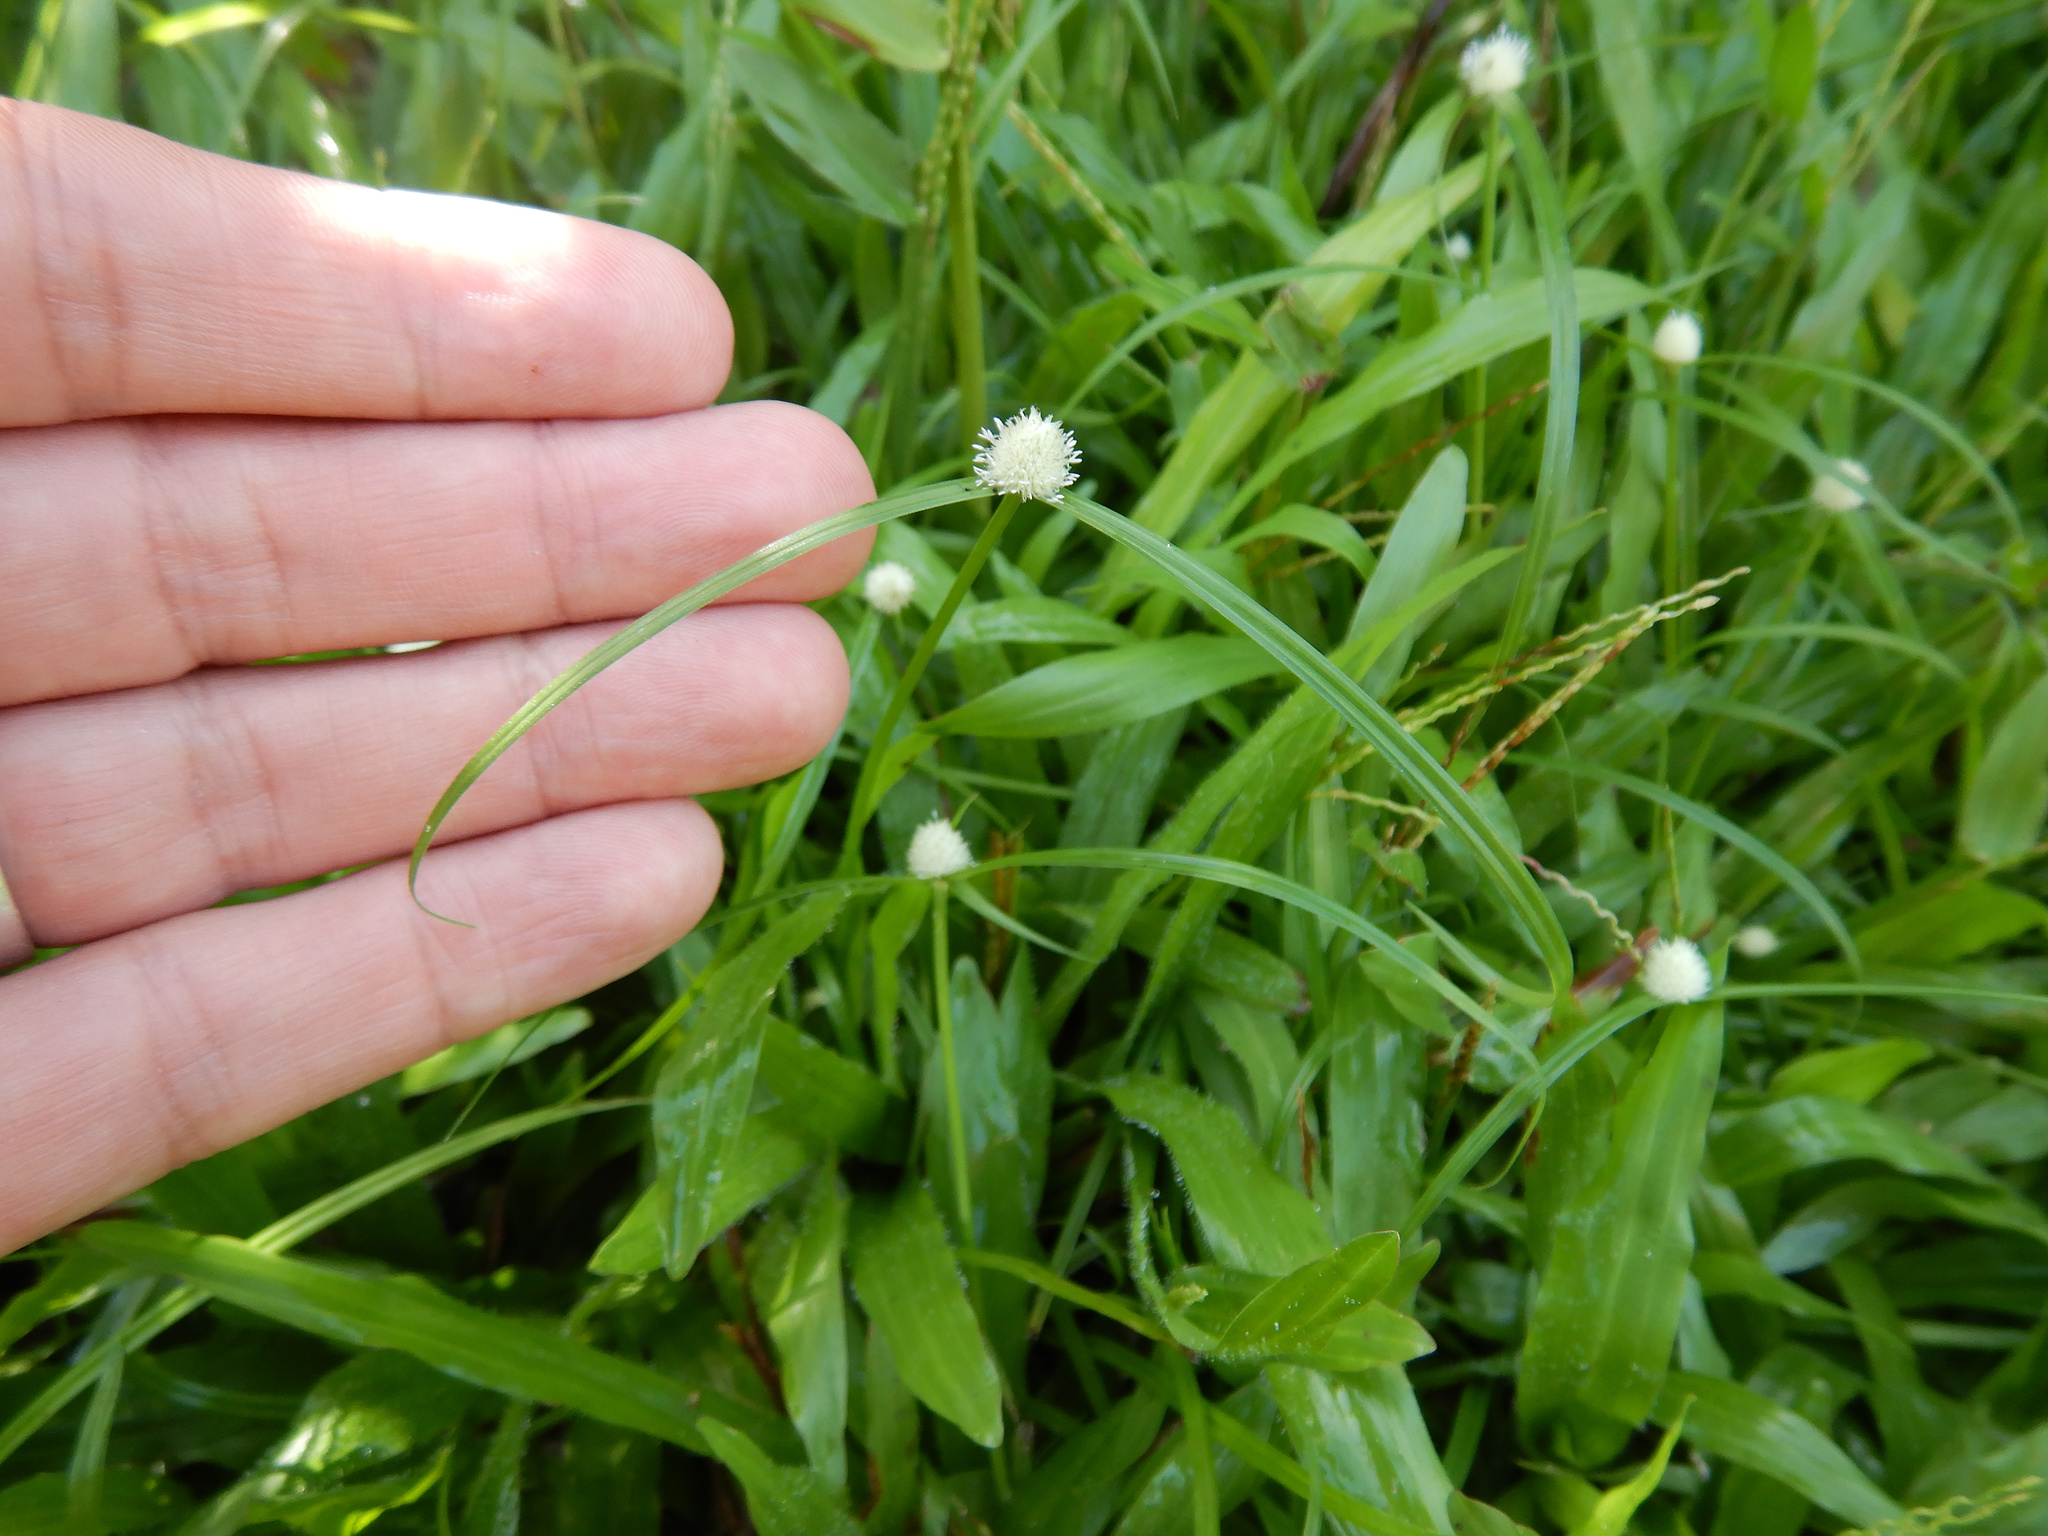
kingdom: Plantae
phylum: Tracheophyta
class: Liliopsida
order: Poales
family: Cyperaceae
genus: Cyperus
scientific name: Cyperus mindorensis
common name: Flatsedge
